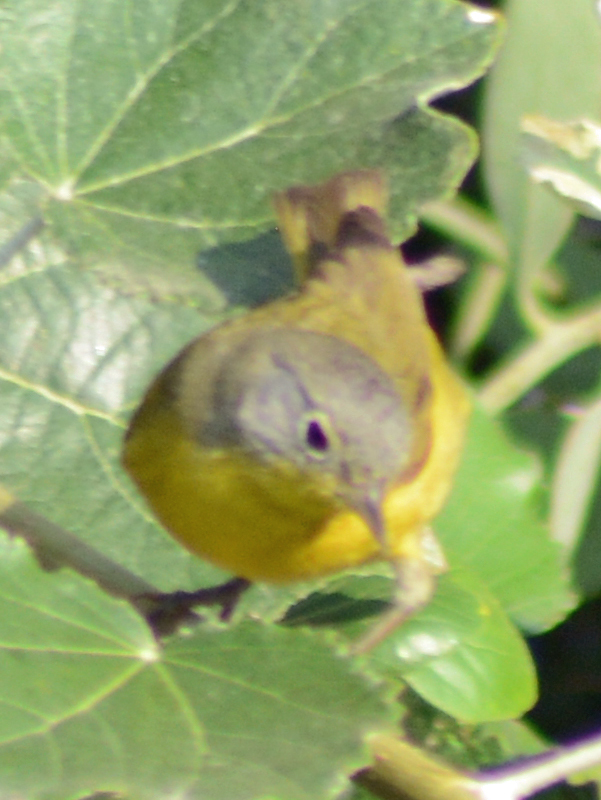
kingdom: Animalia
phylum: Chordata
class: Aves
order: Passeriformes
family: Parulidae
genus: Leiothlypis
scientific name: Leiothlypis ruficapilla
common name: Nashville warbler
